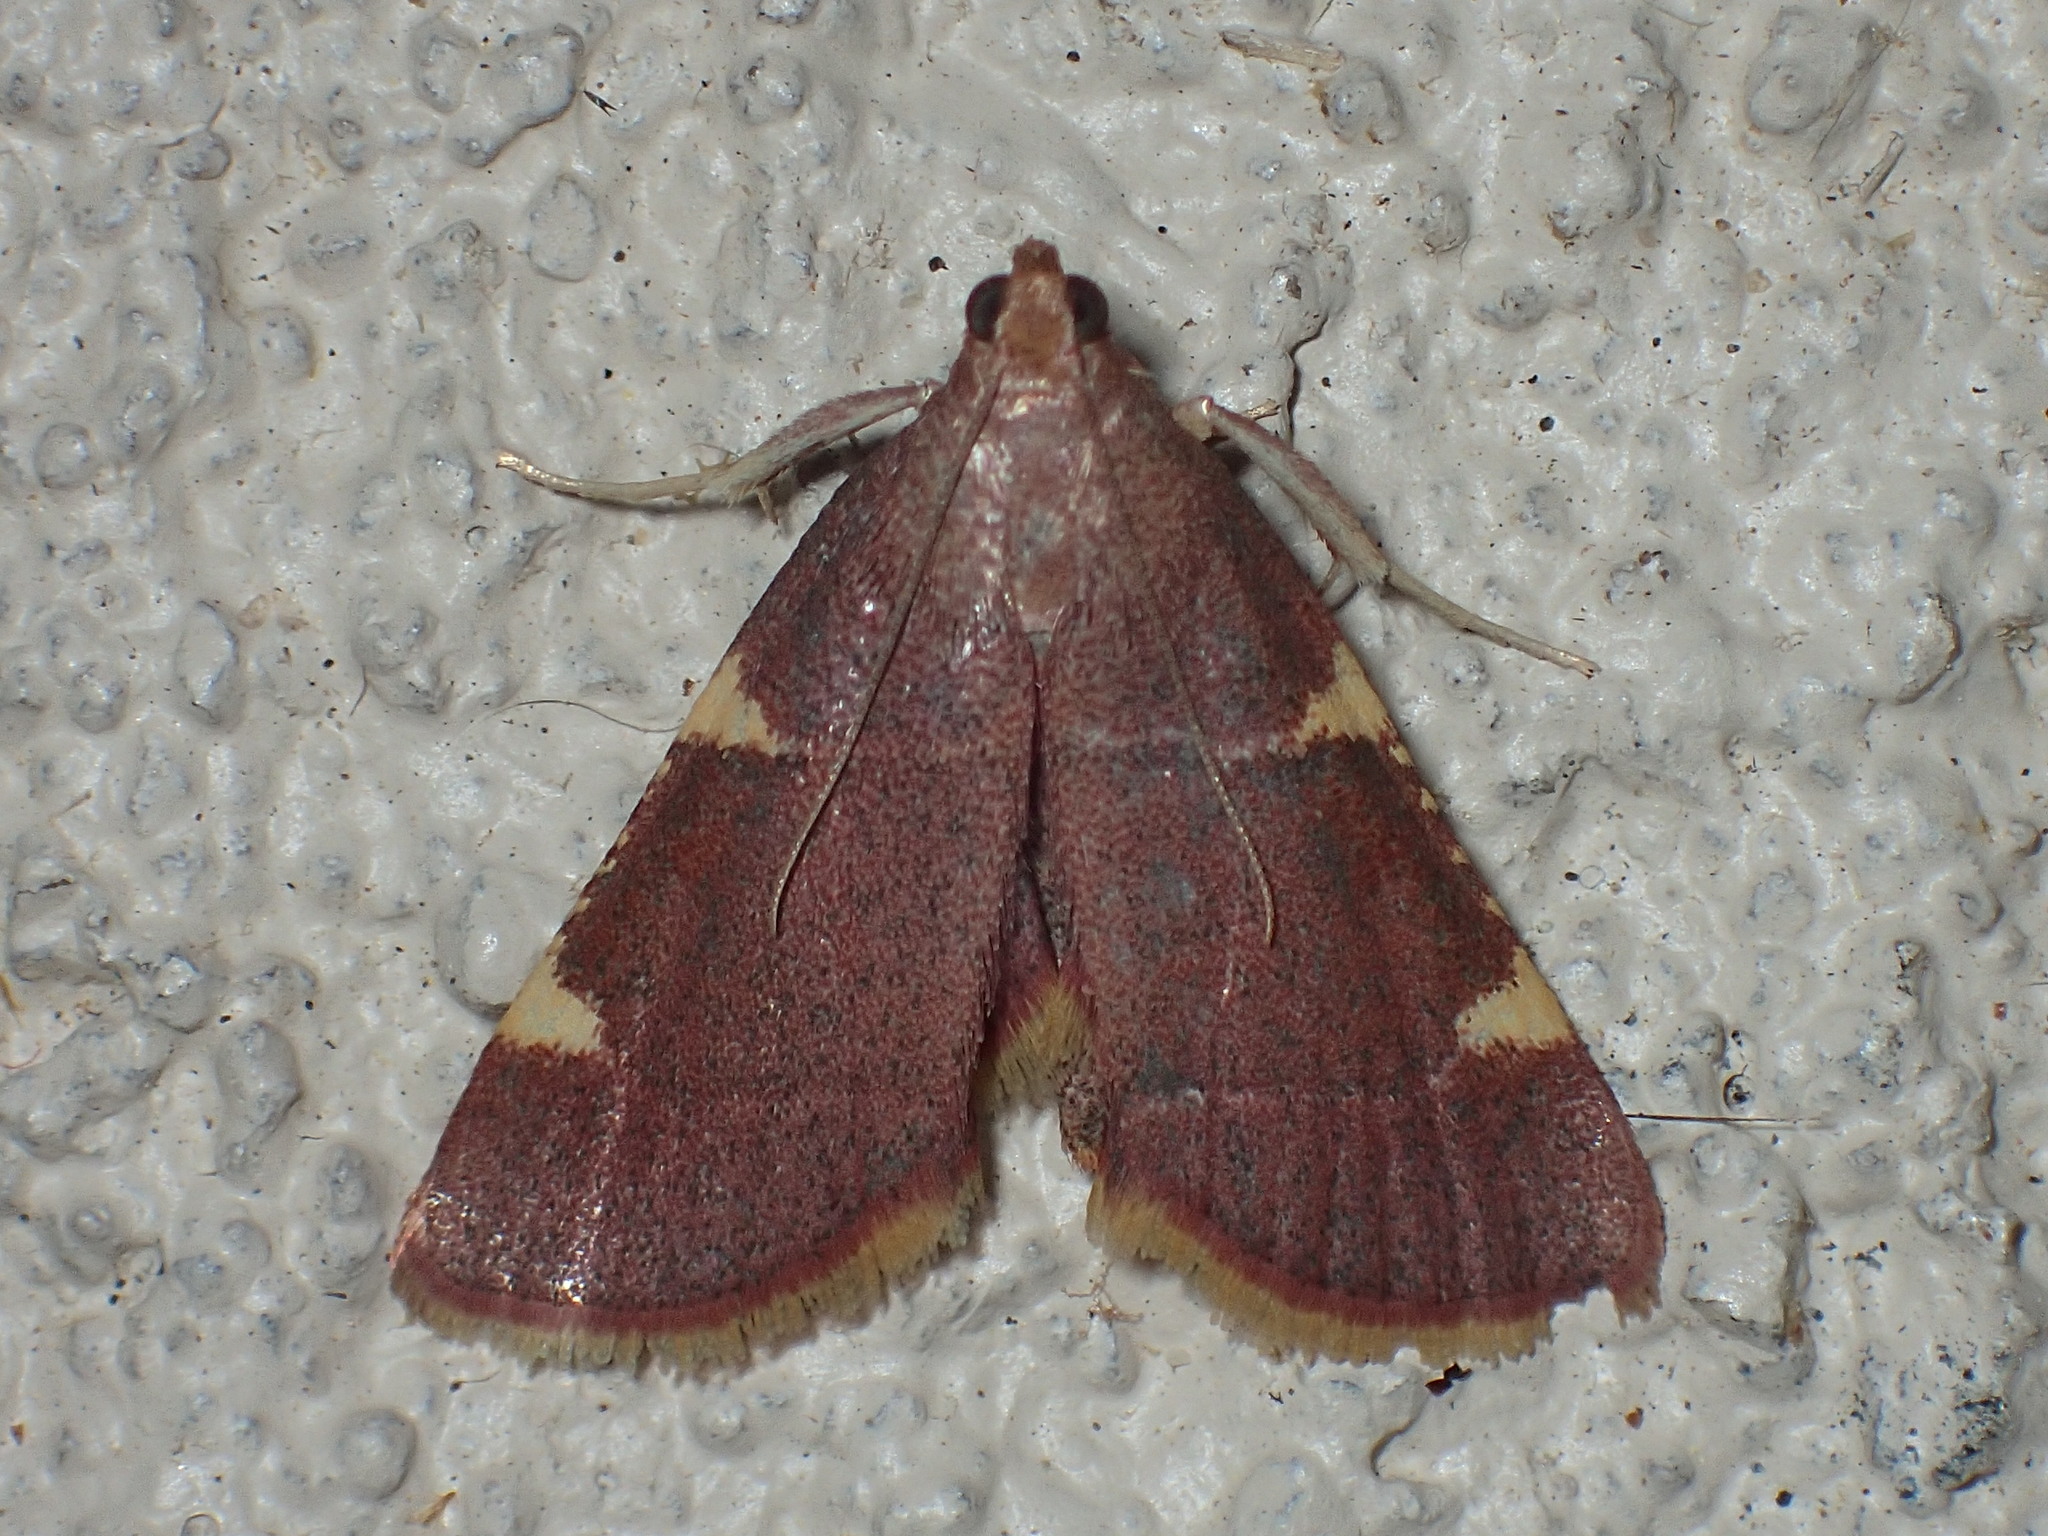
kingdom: Animalia
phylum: Arthropoda
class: Insecta
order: Lepidoptera
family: Pyralidae
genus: Hypsopygia
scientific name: Hypsopygia olinalis
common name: Yellow-fringed dolichomia moth
